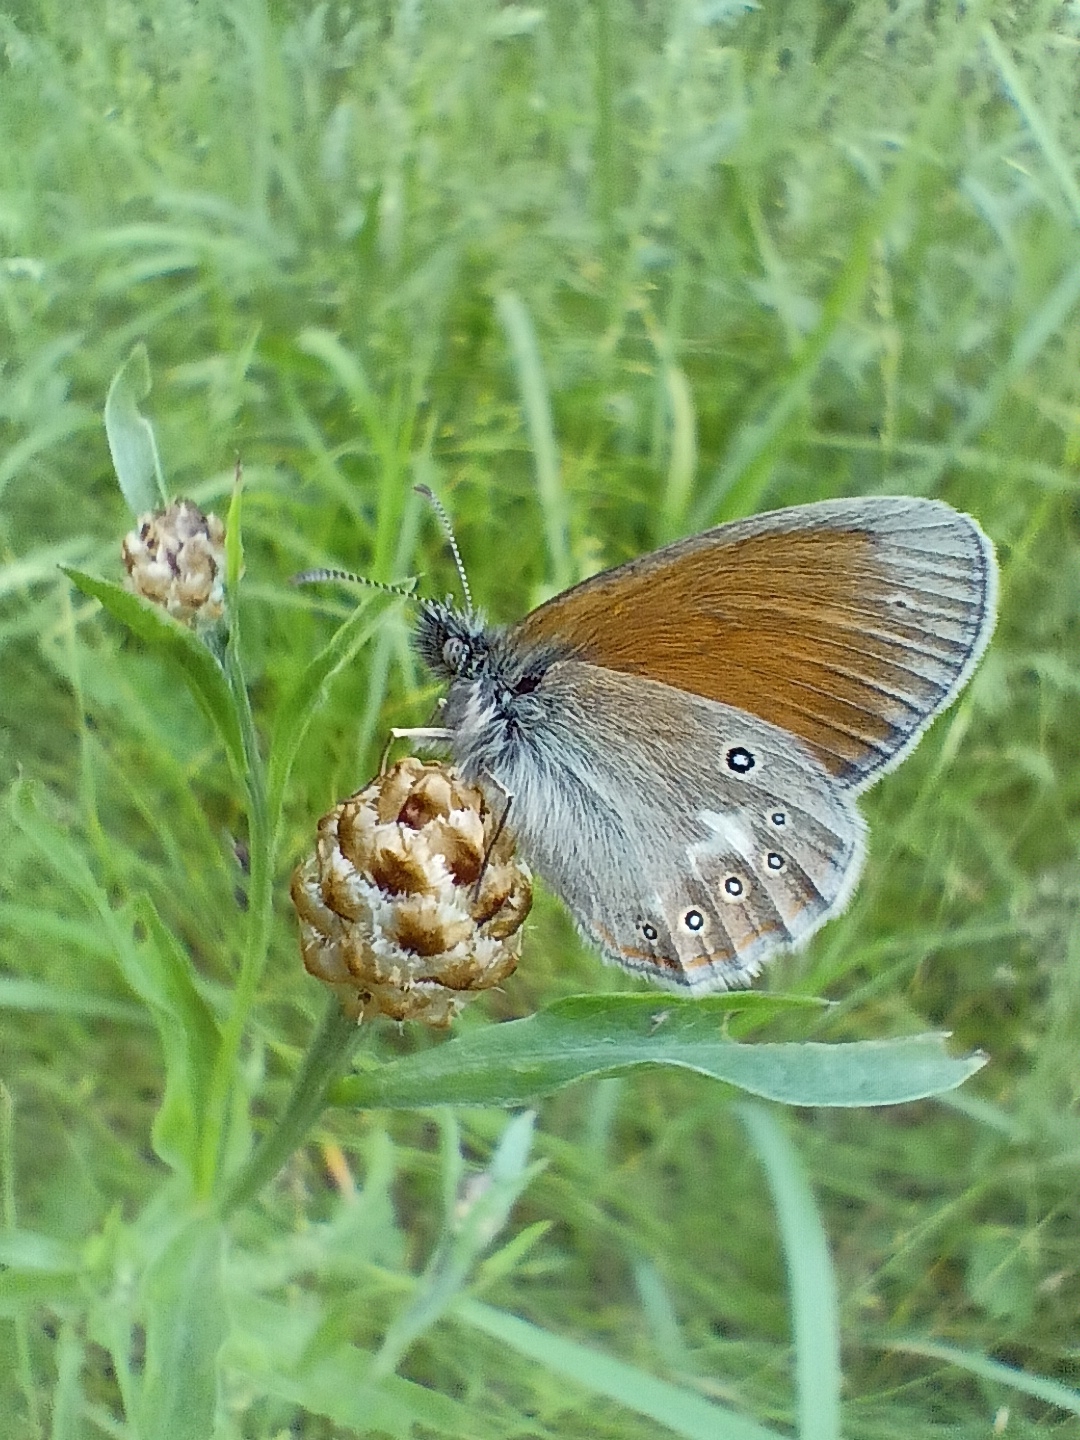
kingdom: Animalia
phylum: Arthropoda
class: Insecta
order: Lepidoptera
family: Nymphalidae
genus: Coenonympha
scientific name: Coenonympha iphis
